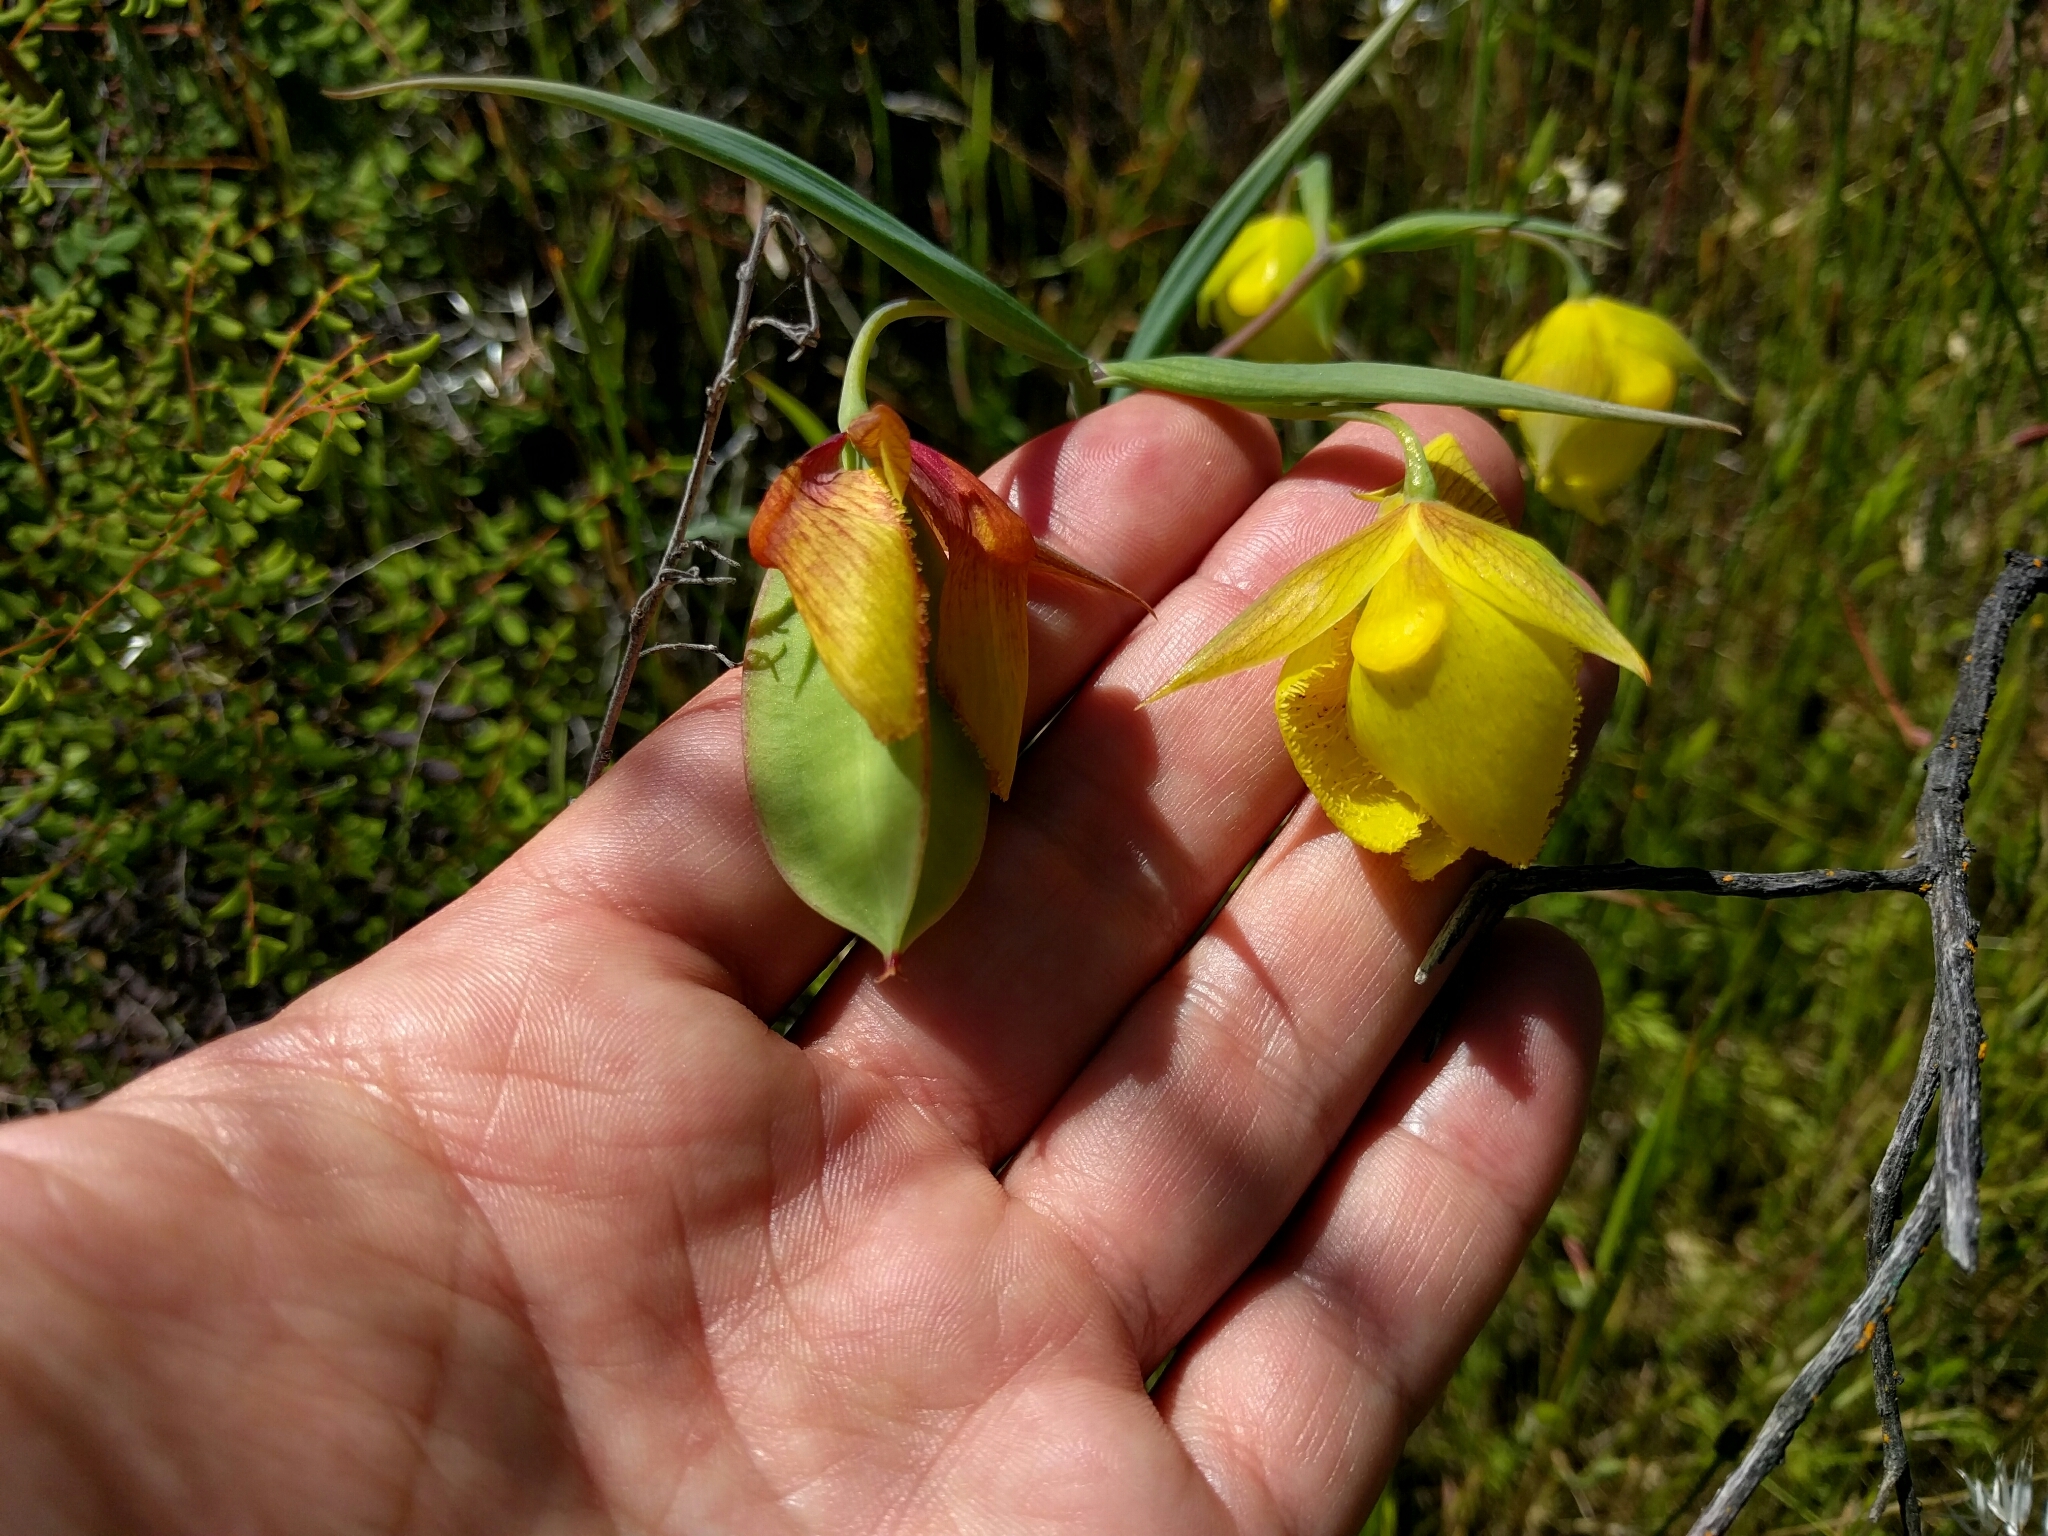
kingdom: Plantae
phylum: Tracheophyta
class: Liliopsida
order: Liliales
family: Liliaceae
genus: Calochortus
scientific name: Calochortus pulchellus
